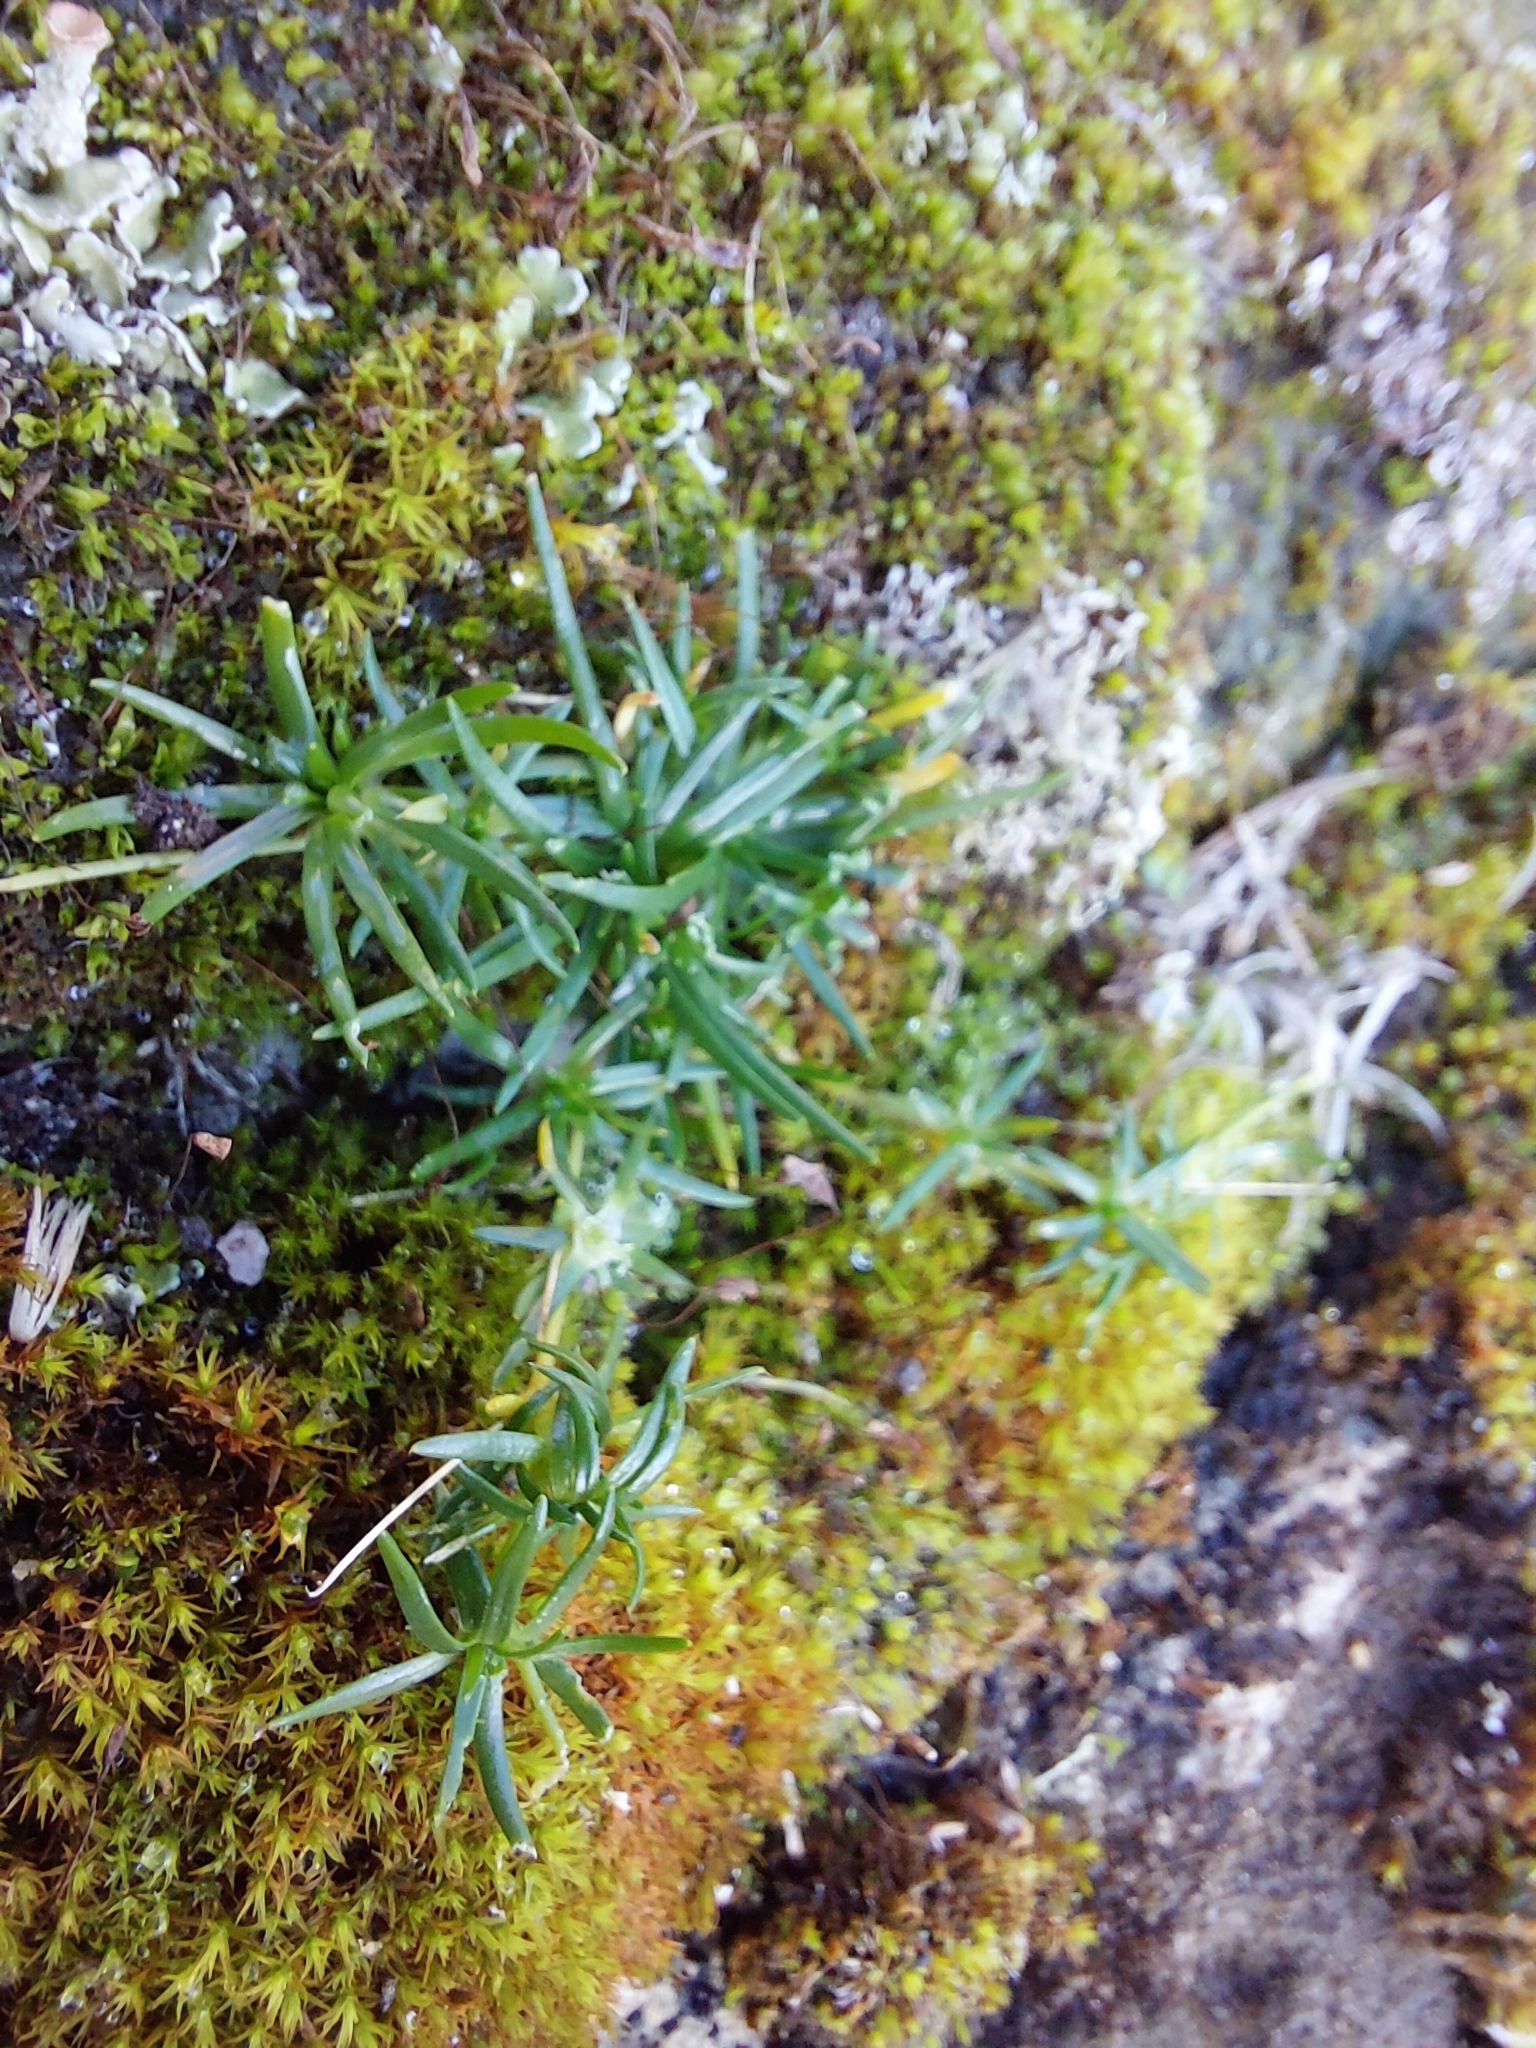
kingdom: Plantae
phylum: Tracheophyta
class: Magnoliopsida
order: Caryophyllales
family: Caryophyllaceae
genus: Sagina
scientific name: Sagina procumbens
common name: Procumbent pearlwort
